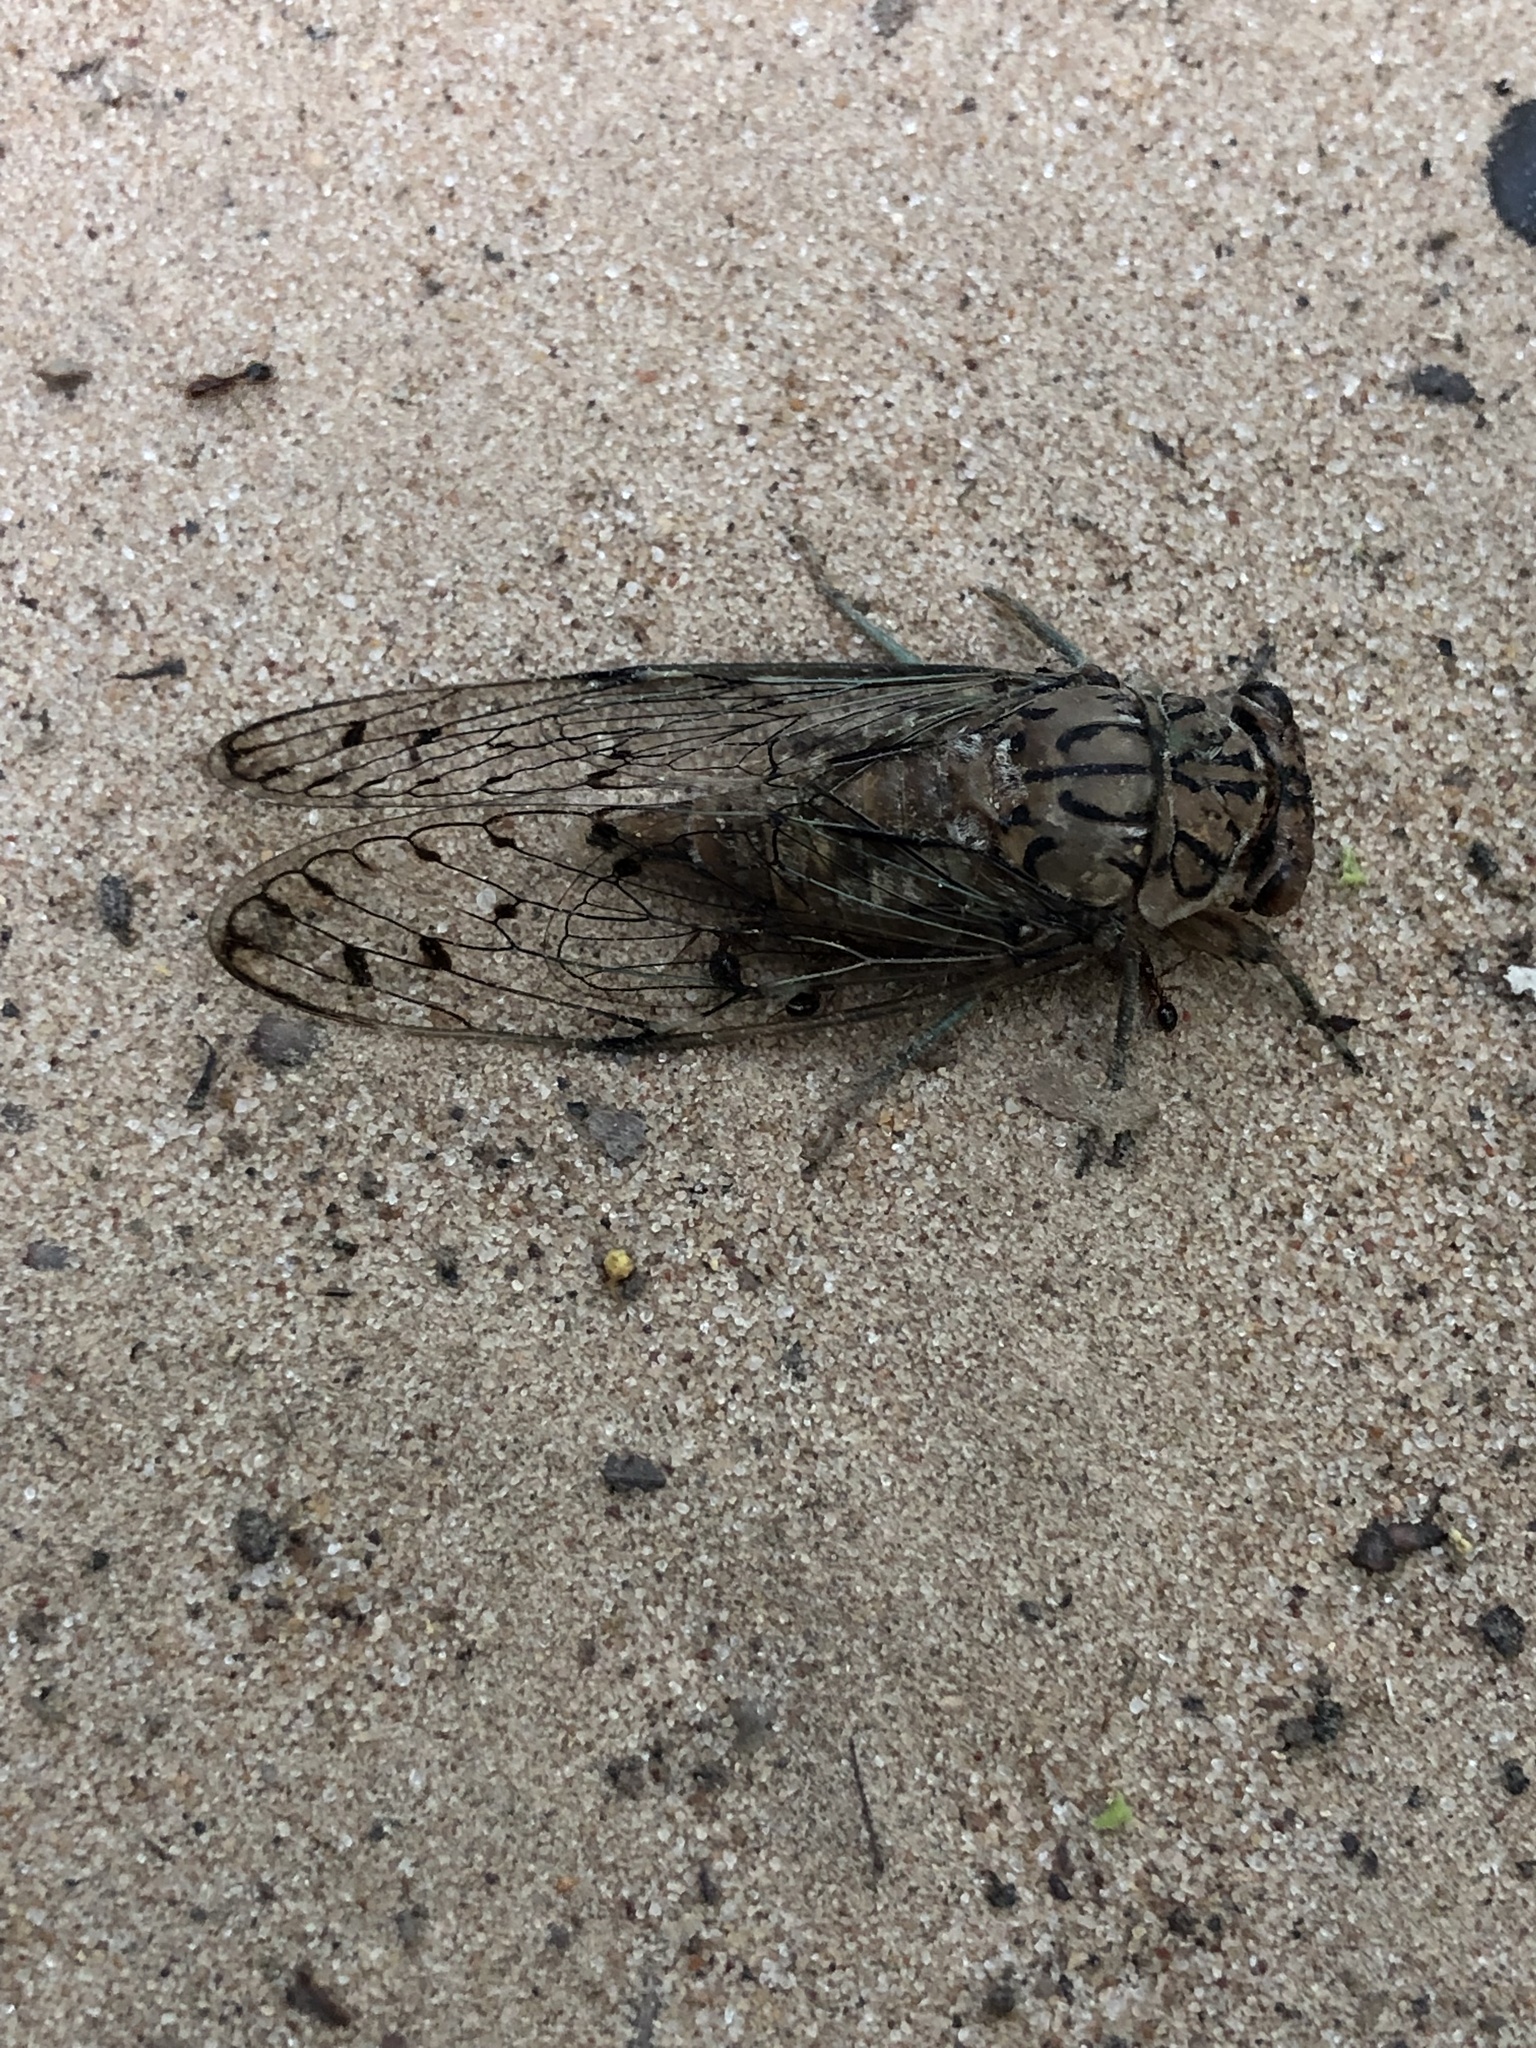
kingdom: Animalia
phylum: Arthropoda
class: Insecta
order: Hemiptera
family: Cicadidae
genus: Neocicada
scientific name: Neocicada hieroglyphica
